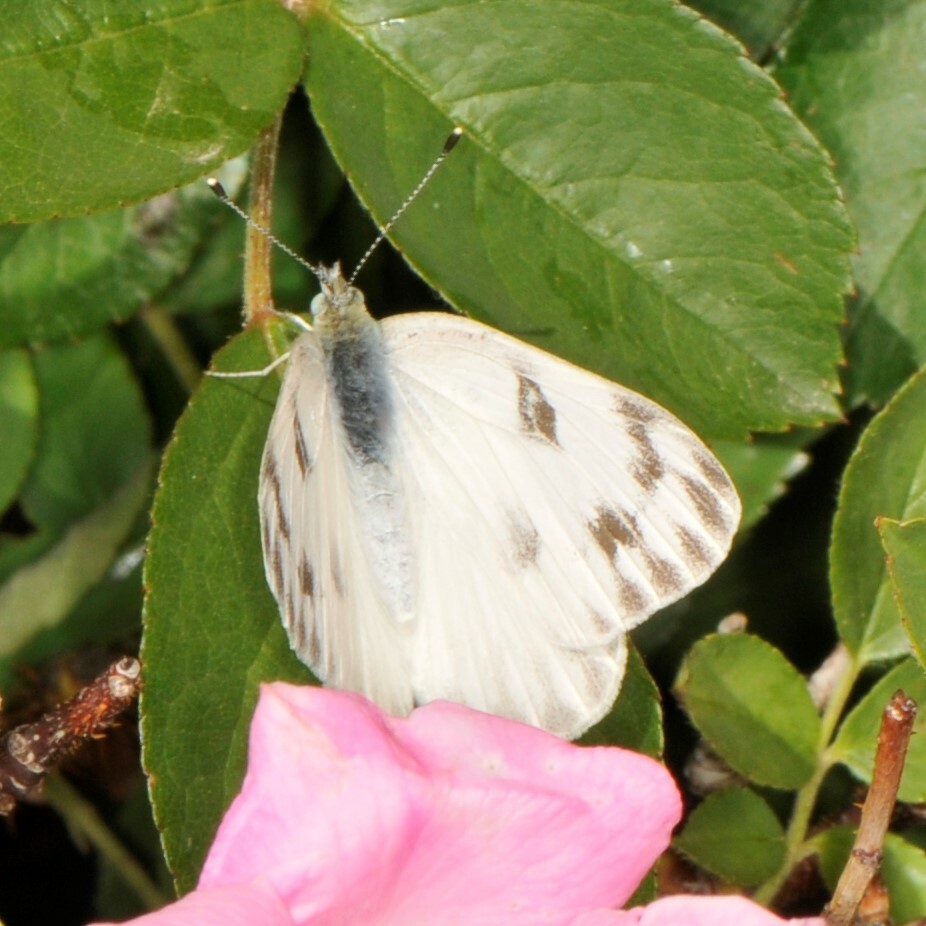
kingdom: Animalia
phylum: Arthropoda
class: Insecta
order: Lepidoptera
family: Pieridae
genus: Pontia
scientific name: Pontia protodice
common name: Checkered white
